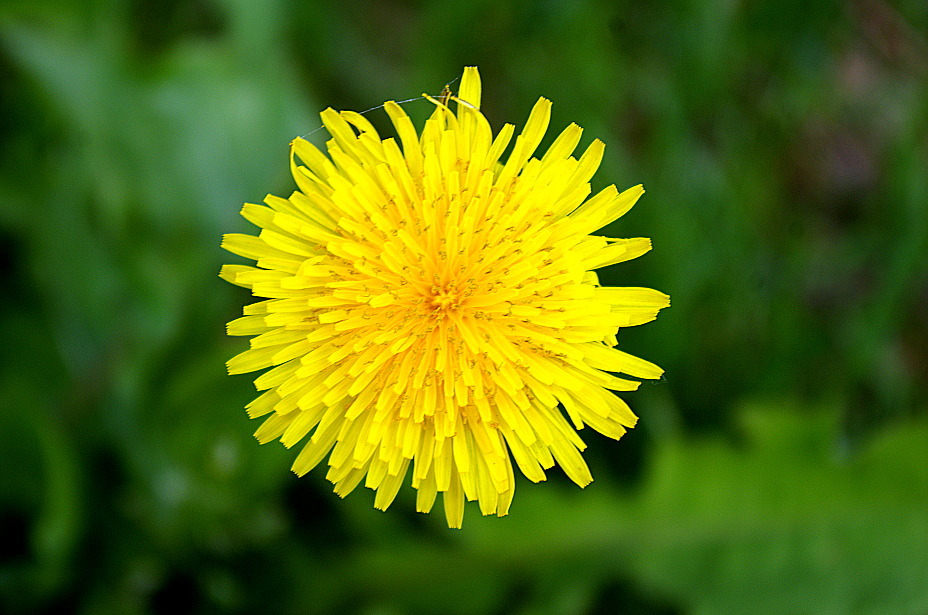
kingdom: Plantae
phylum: Tracheophyta
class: Magnoliopsida
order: Asterales
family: Asteraceae
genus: Taraxacum
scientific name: Taraxacum officinale
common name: Common dandelion
